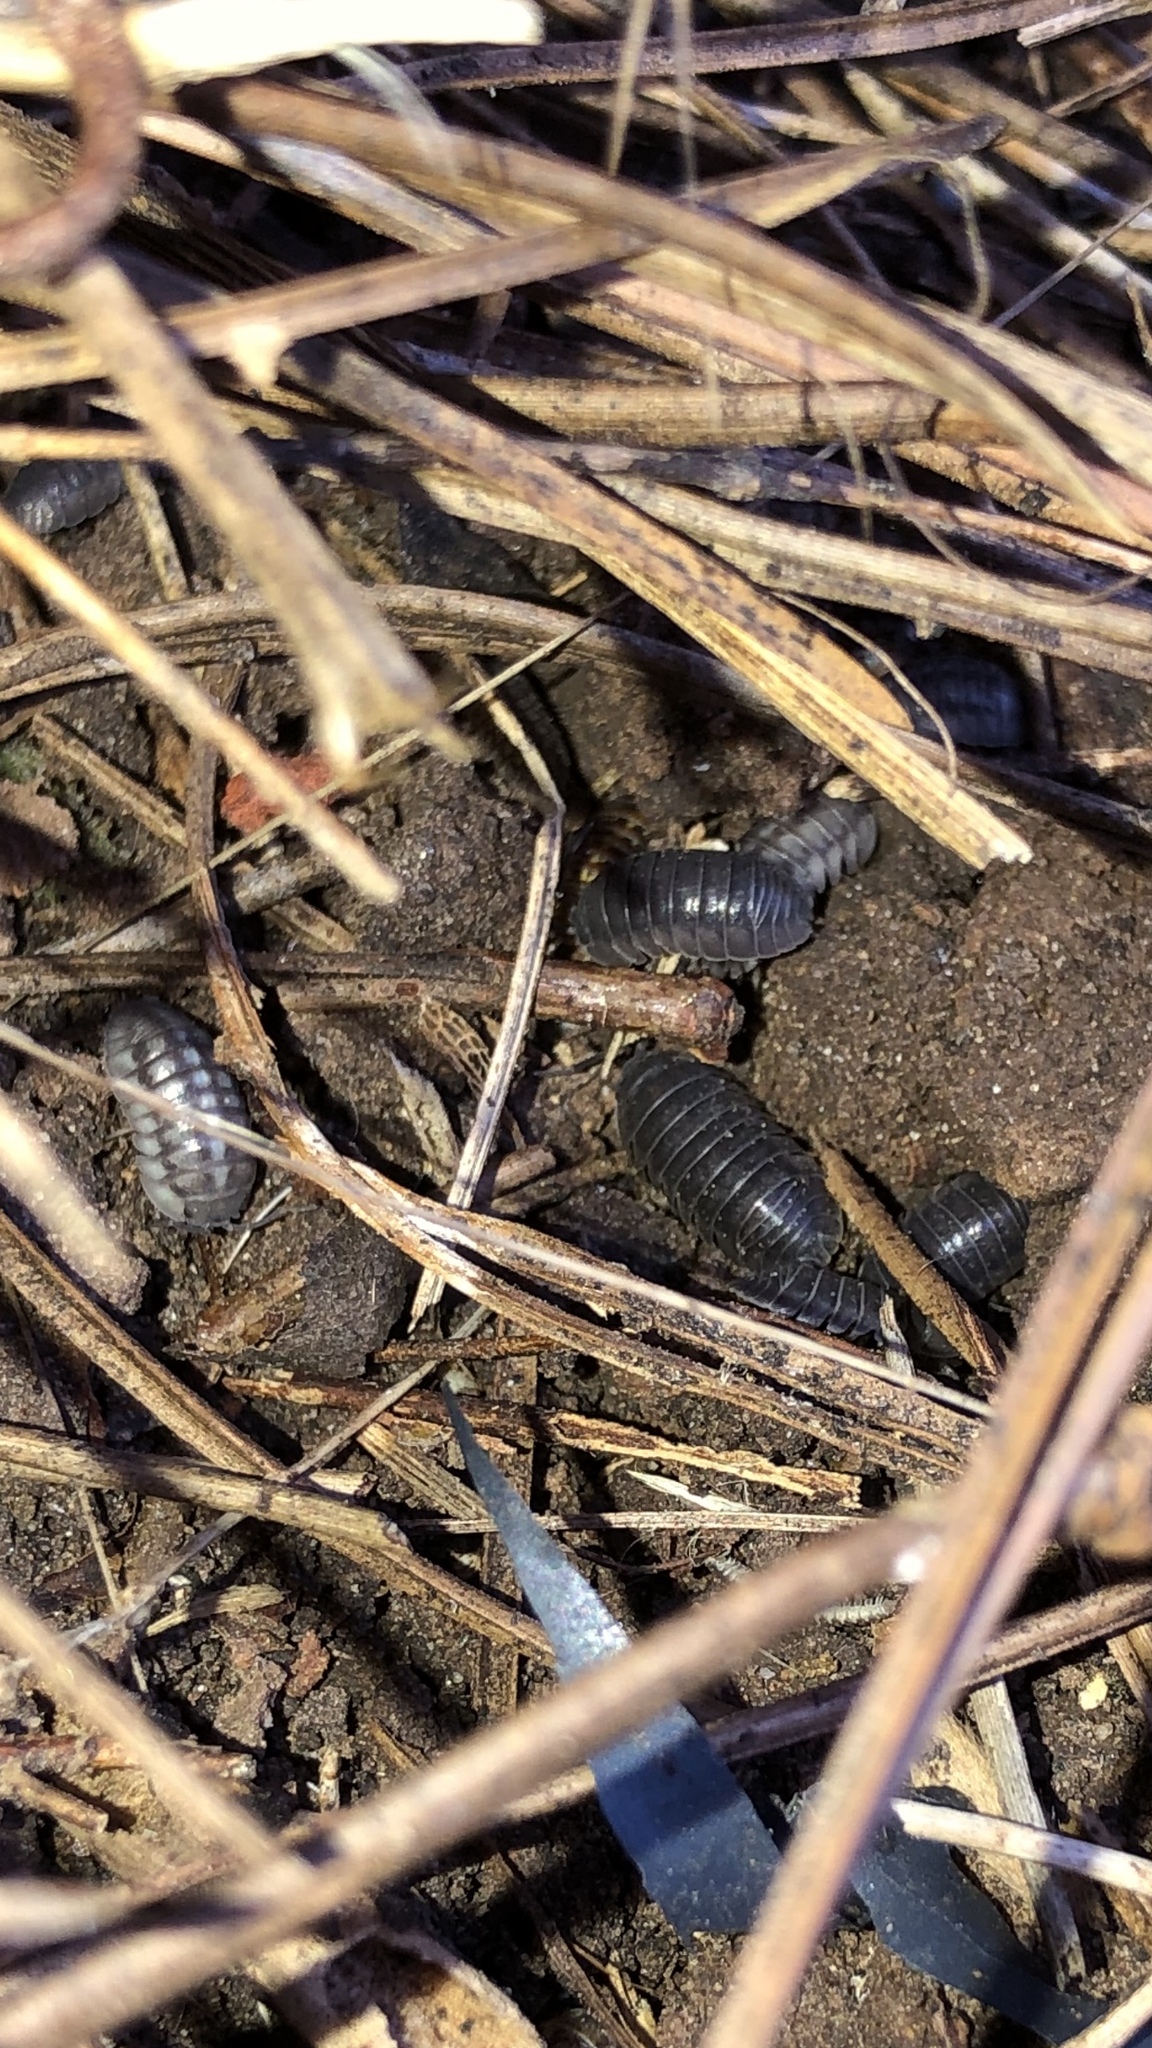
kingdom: Animalia
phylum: Arthropoda
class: Malacostraca
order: Isopoda
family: Armadillidiidae
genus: Armadillidium
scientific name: Armadillidium nasatum
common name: Isopod
